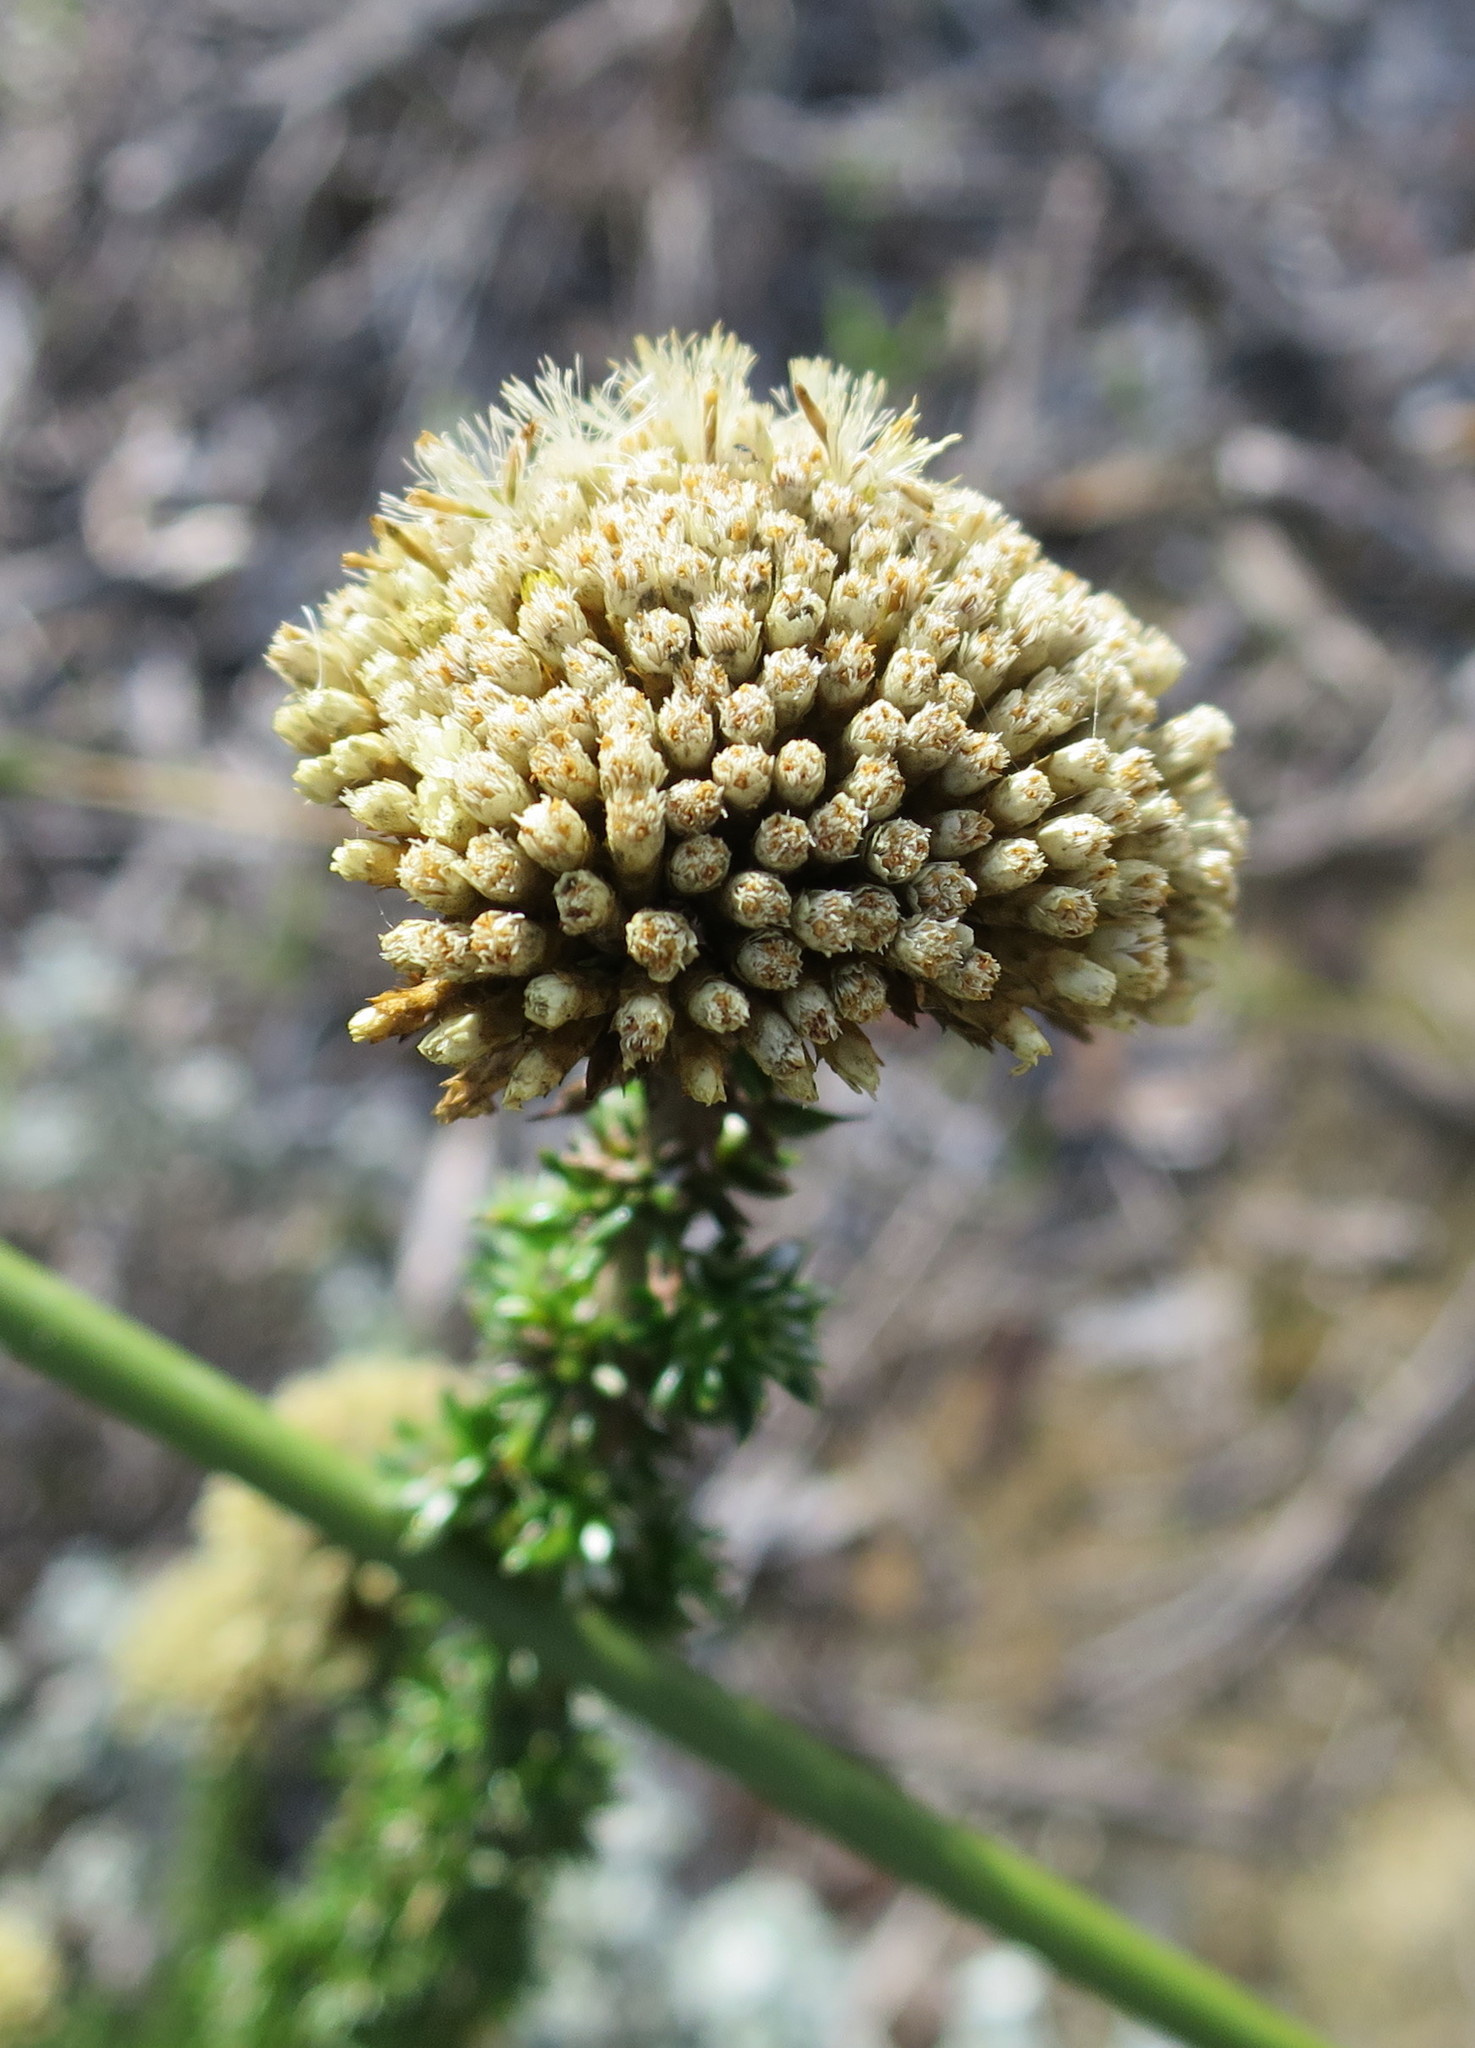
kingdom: Plantae
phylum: Tracheophyta
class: Magnoliopsida
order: Asterales
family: Asteraceae
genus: Metalasia
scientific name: Metalasia luteola
